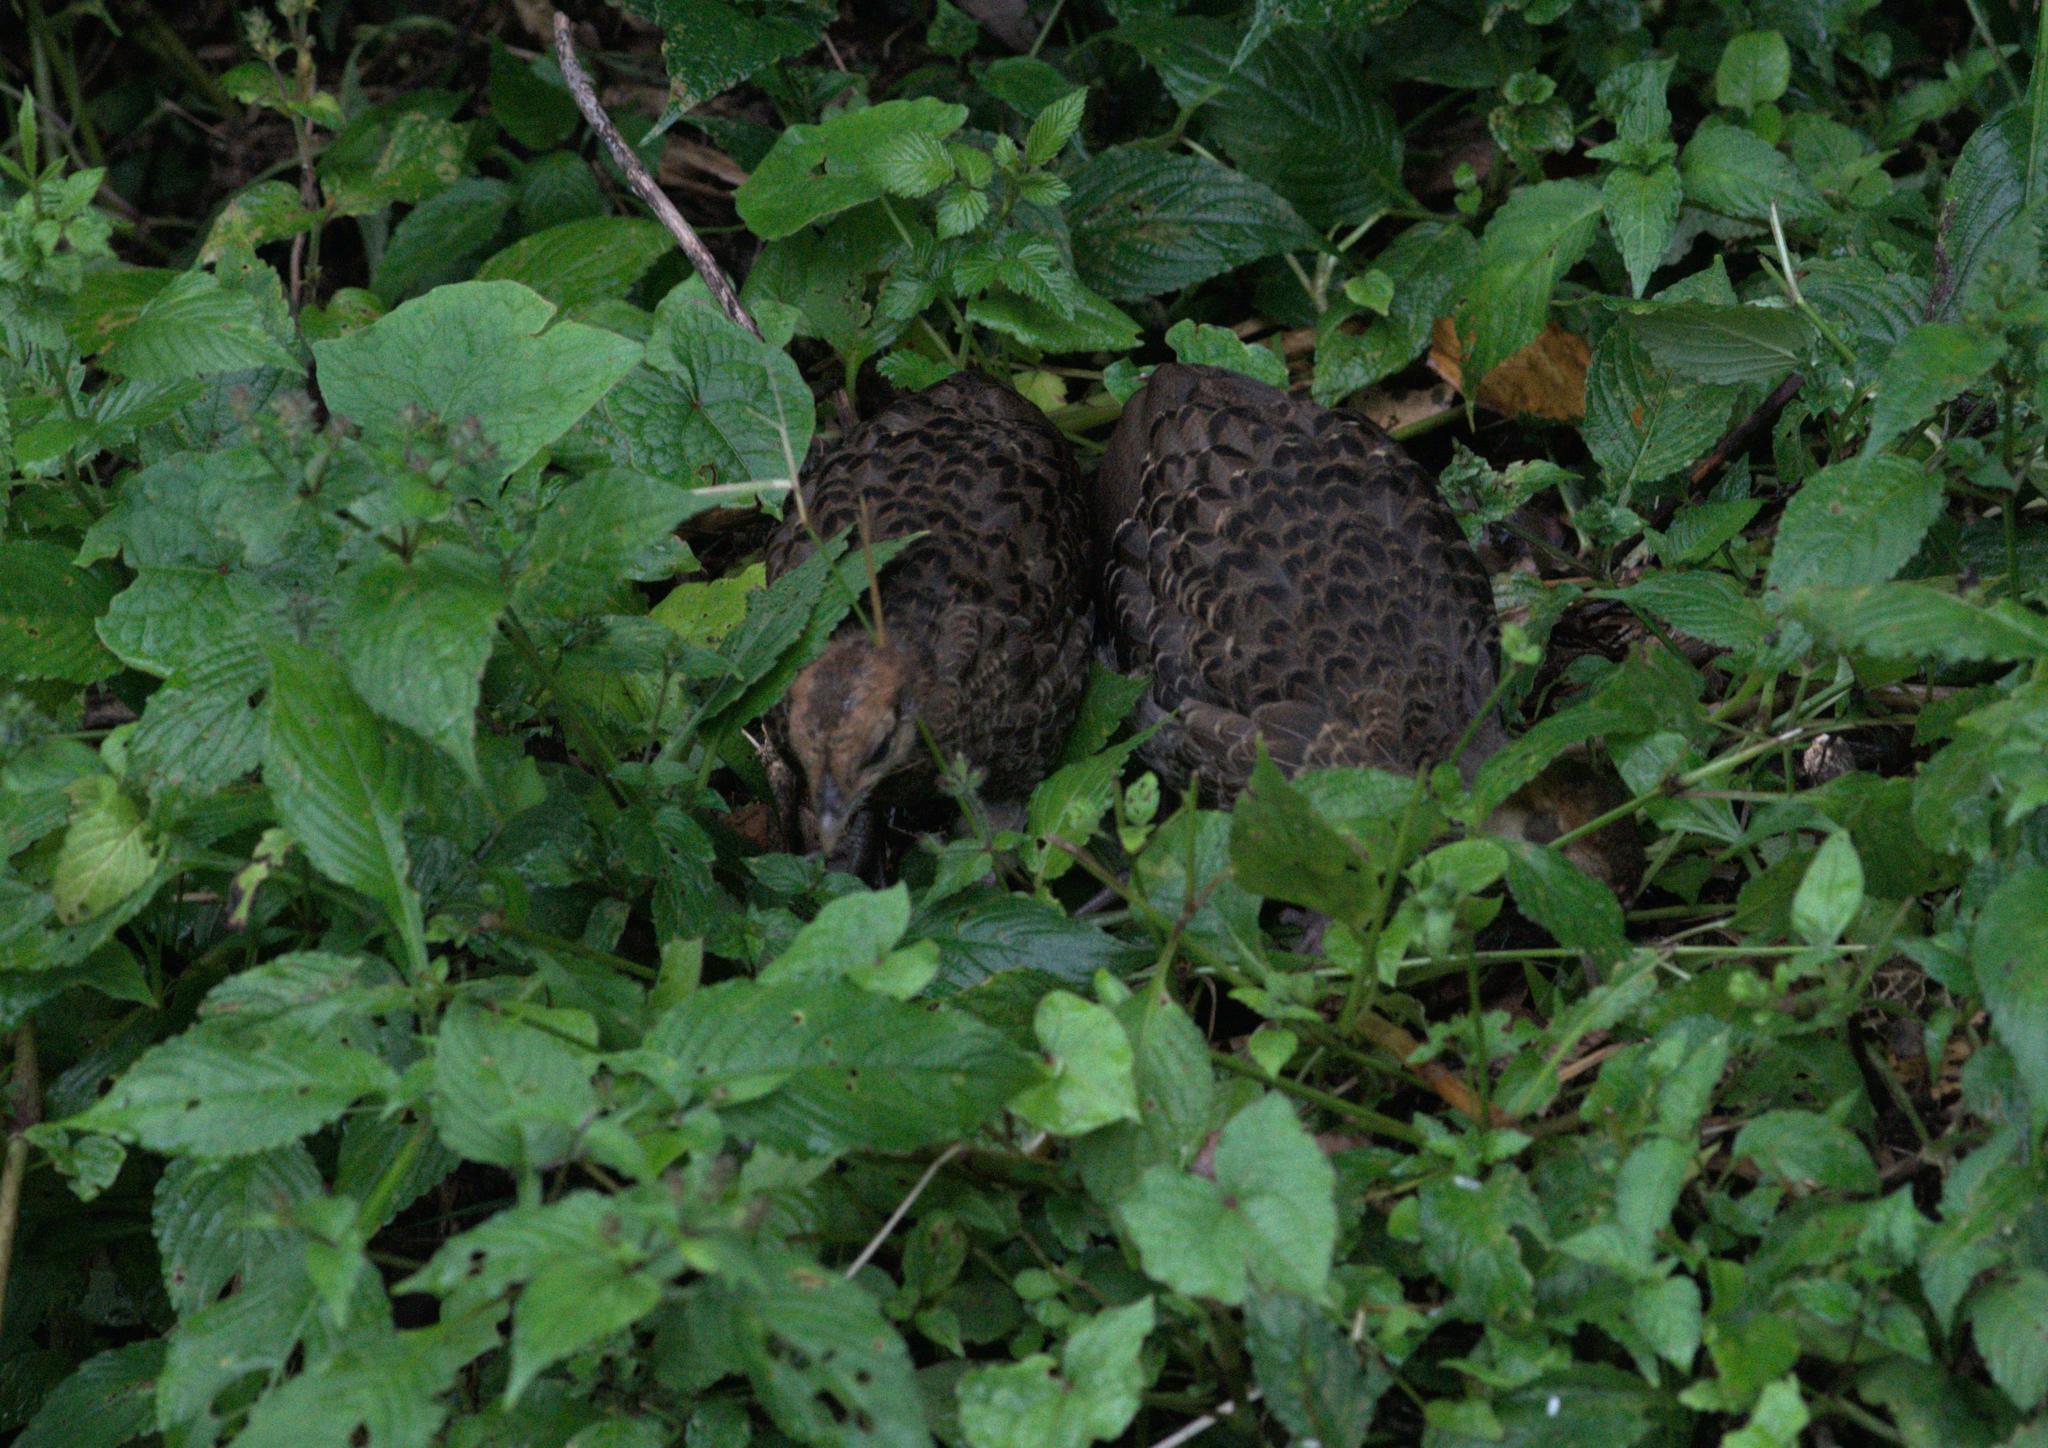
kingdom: Animalia
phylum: Chordata
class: Aves
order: Galliformes
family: Phasianidae
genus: Lophura
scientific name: Lophura leucomelanos
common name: Kalij pheasant
